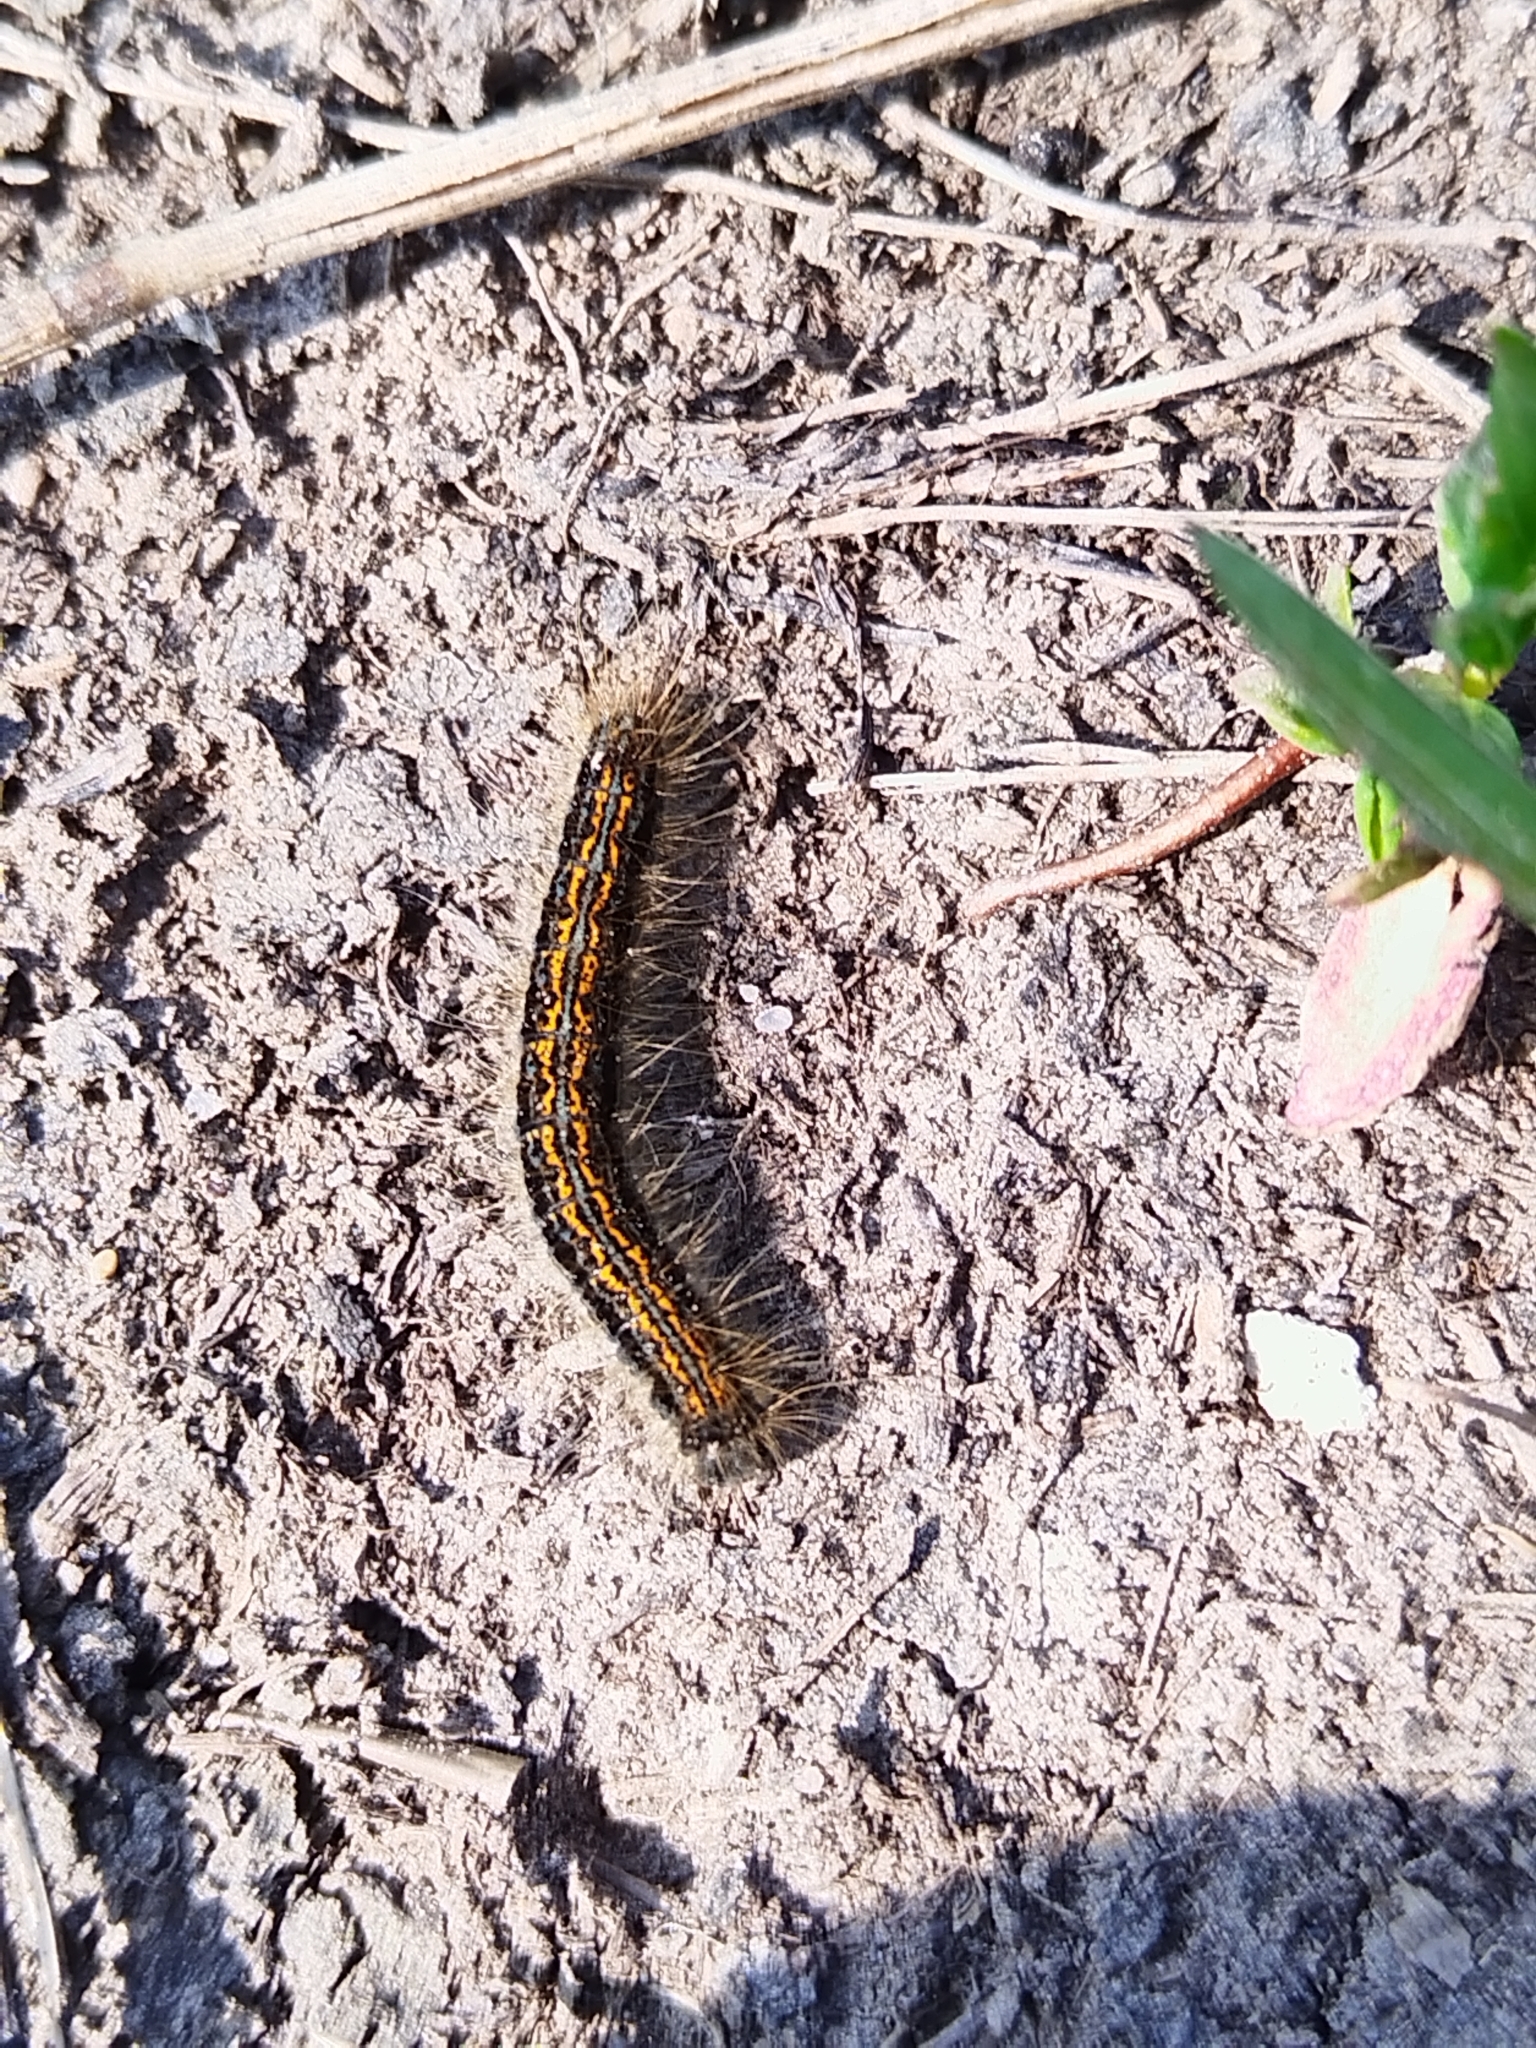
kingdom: Animalia
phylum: Arthropoda
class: Insecta
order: Lepidoptera
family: Lasiocampidae
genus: Malacosoma
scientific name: Malacosoma castrense
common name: Ground lackey
